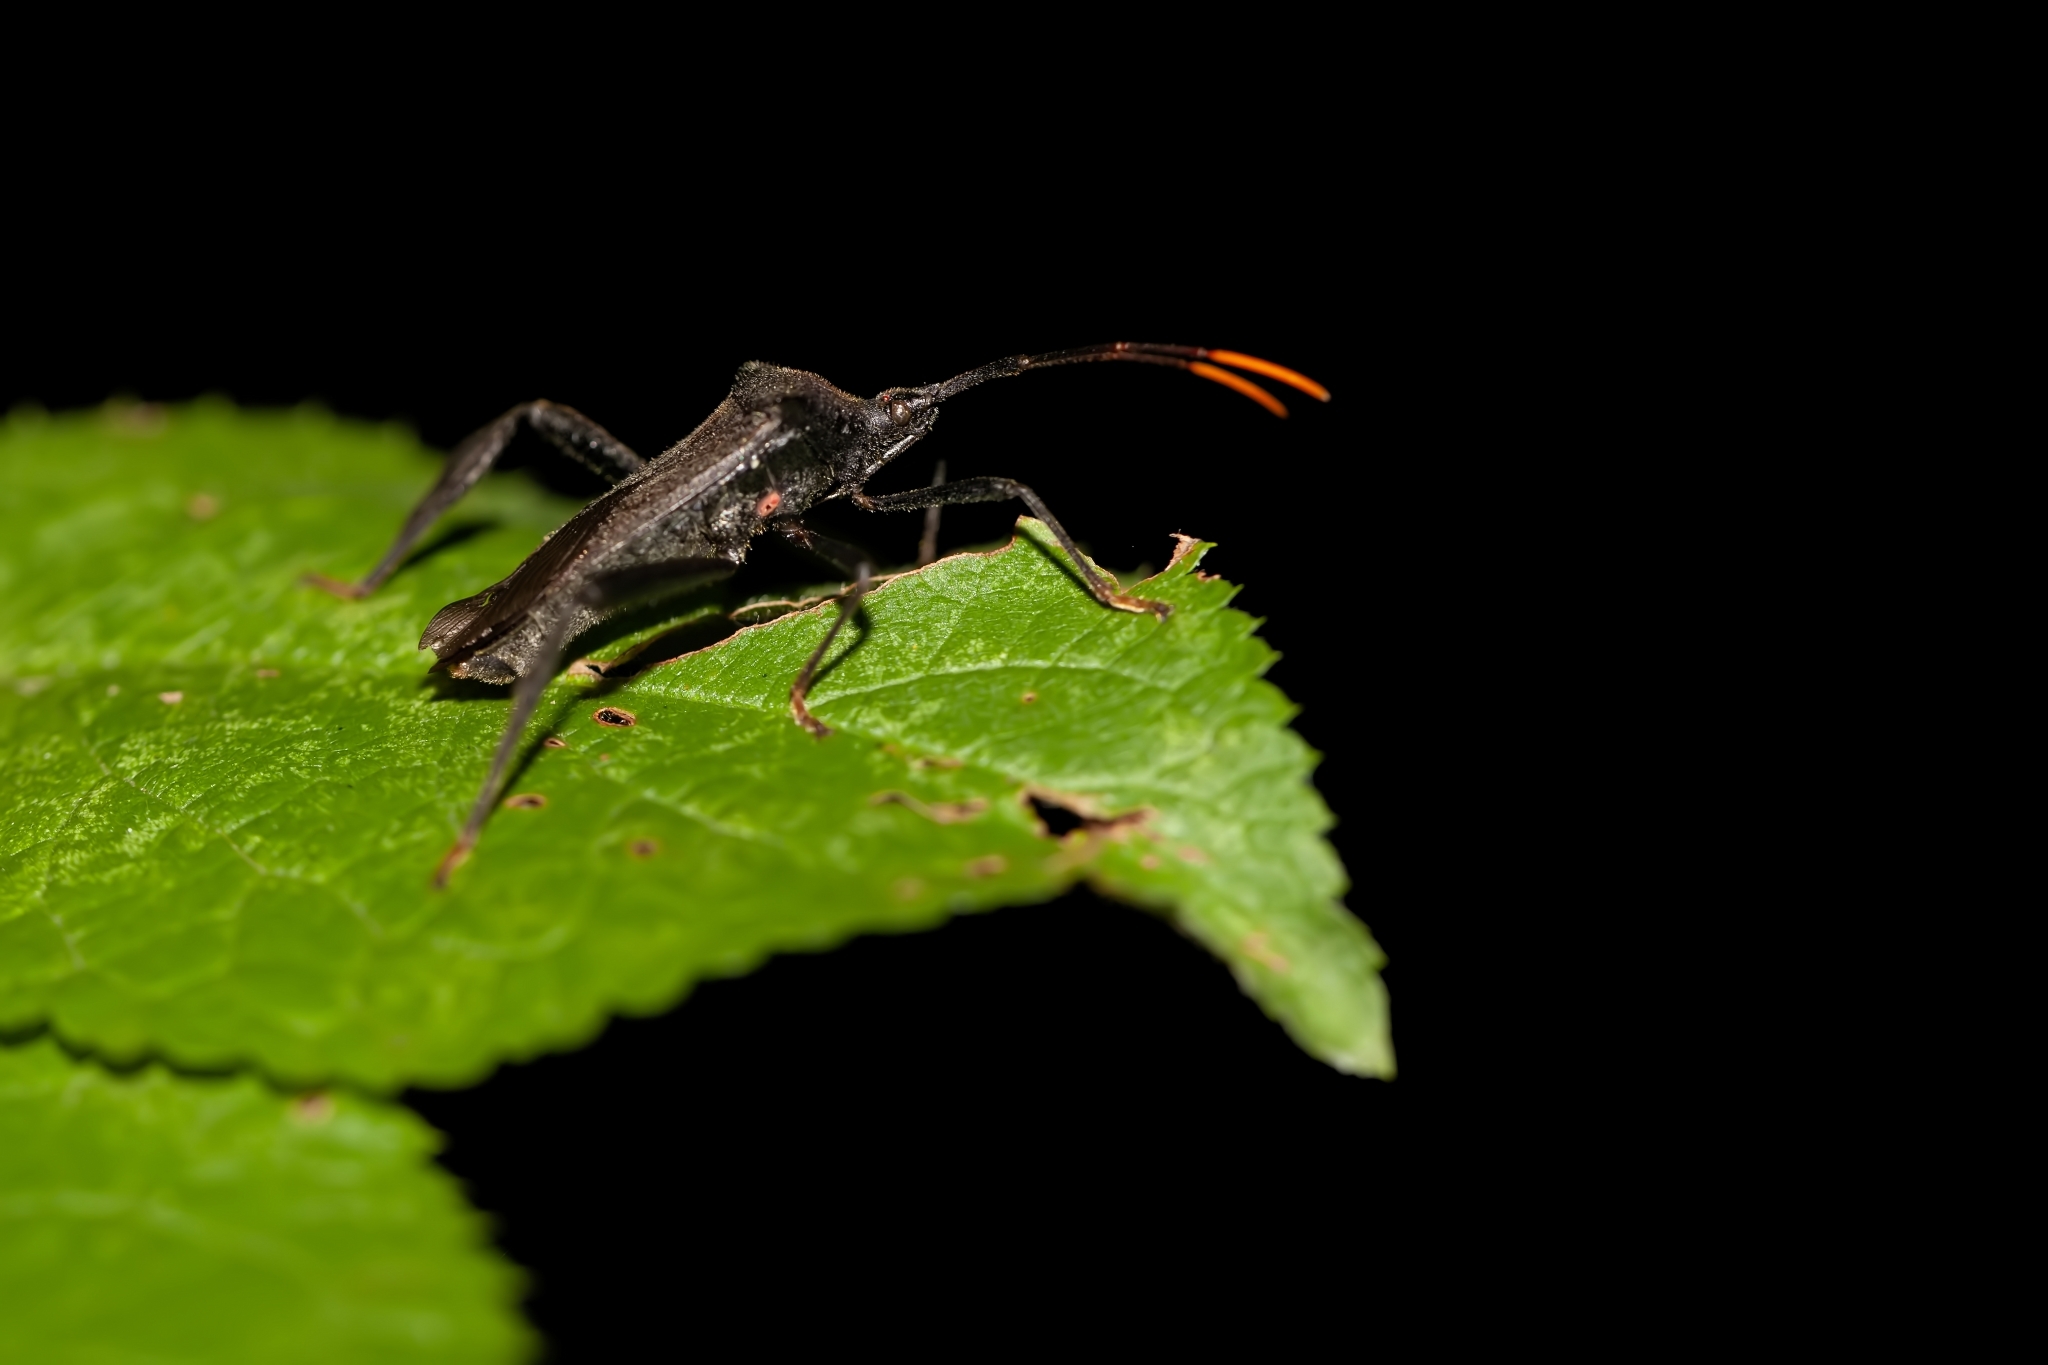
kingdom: Animalia
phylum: Arthropoda
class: Insecta
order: Hemiptera
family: Coreidae
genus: Acanthocephala
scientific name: Acanthocephala terminalis
